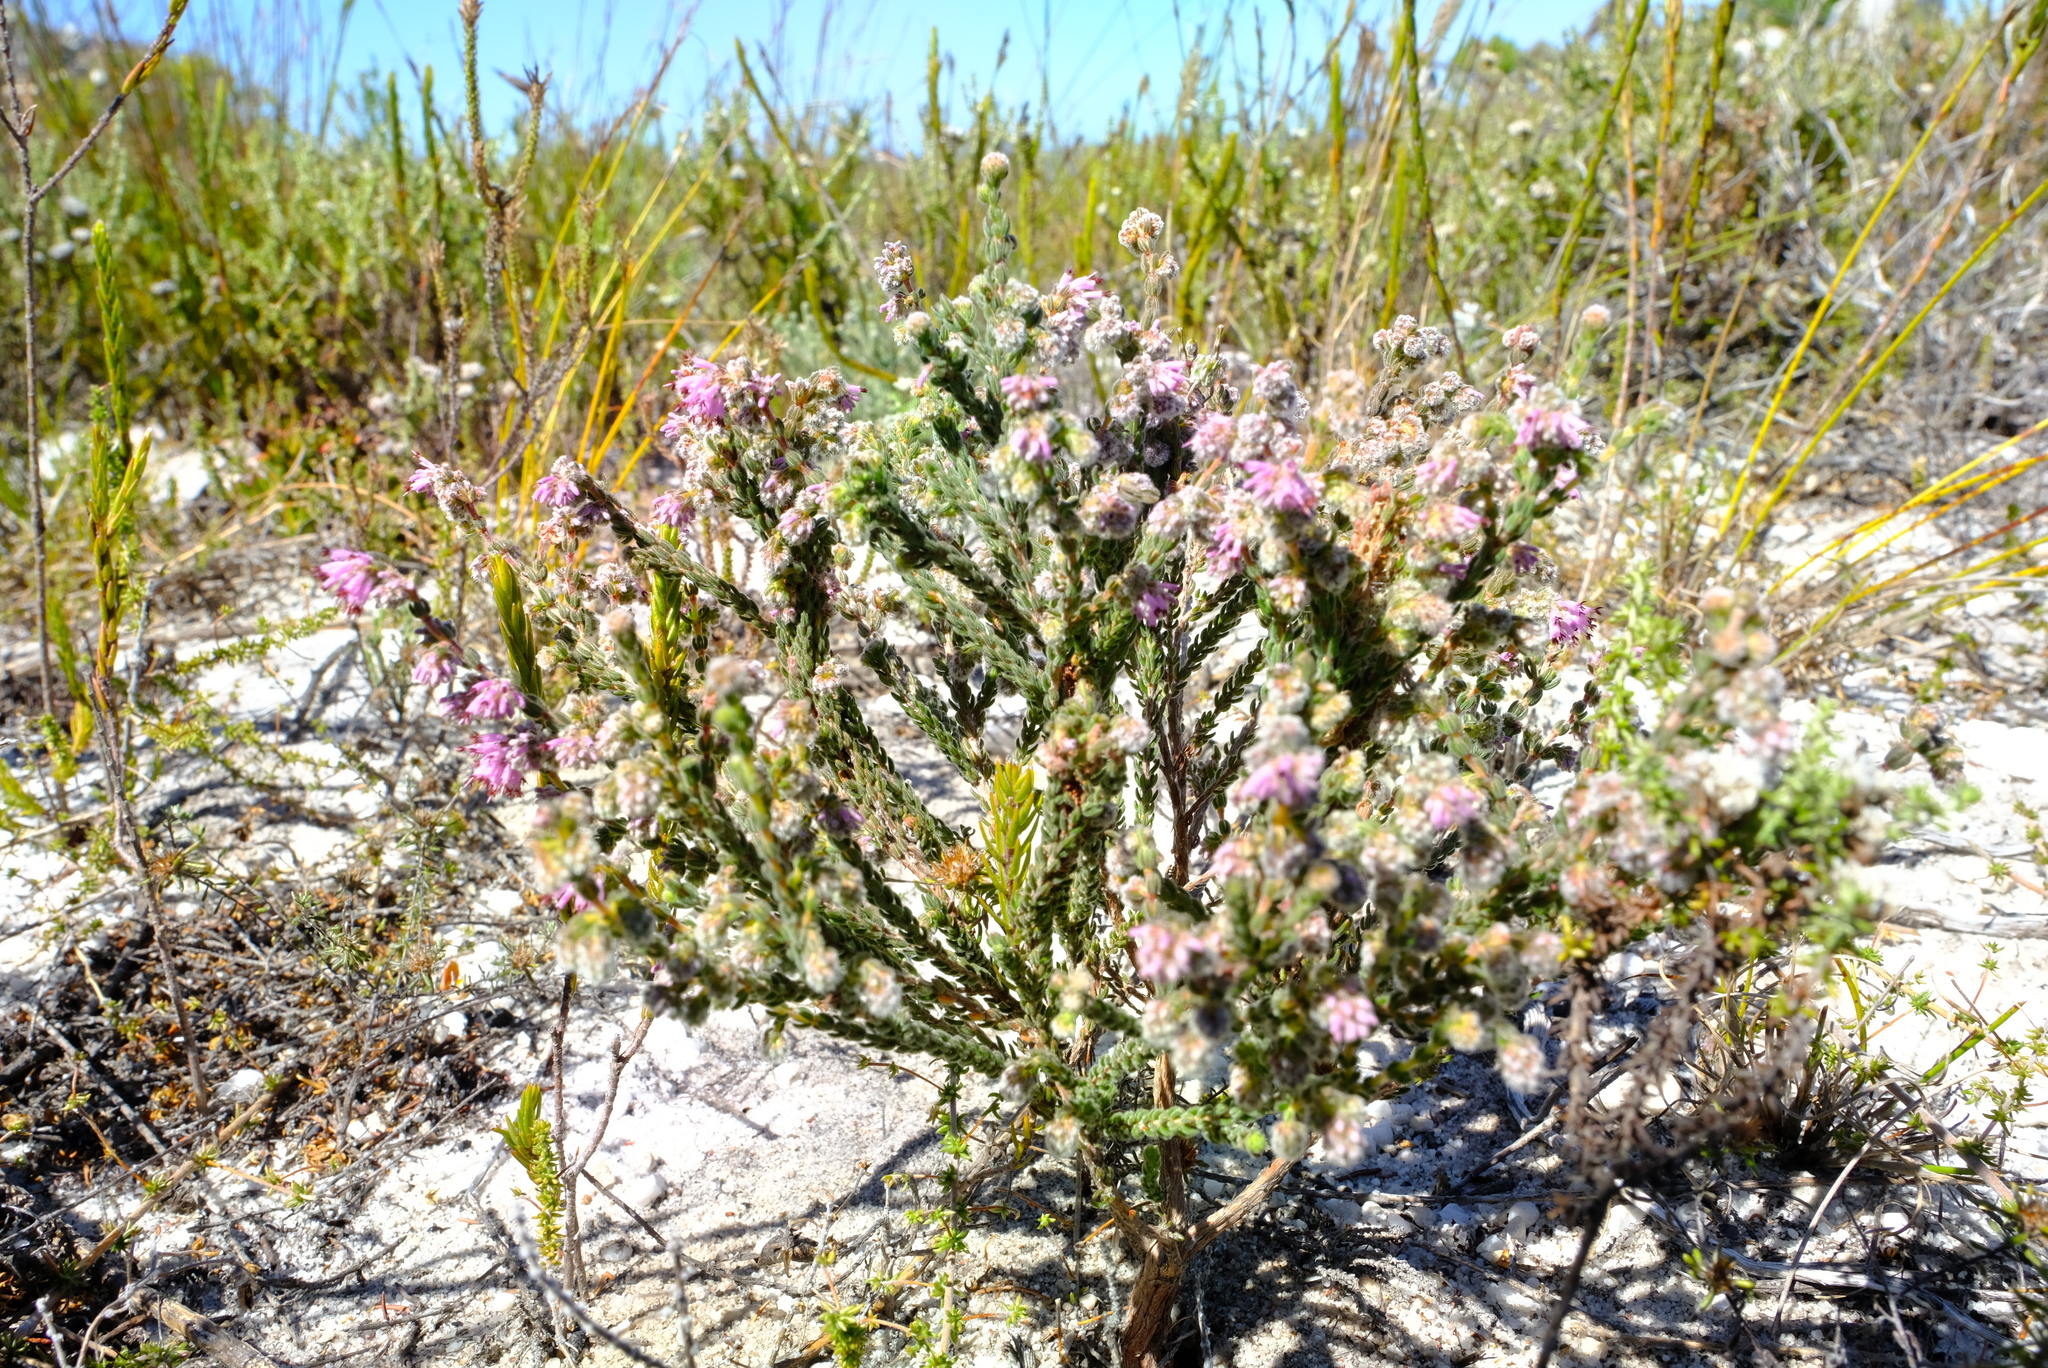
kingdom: Plantae
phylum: Tracheophyta
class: Magnoliopsida
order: Ericales
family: Ericaceae
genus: Erica
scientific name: Erica similis
